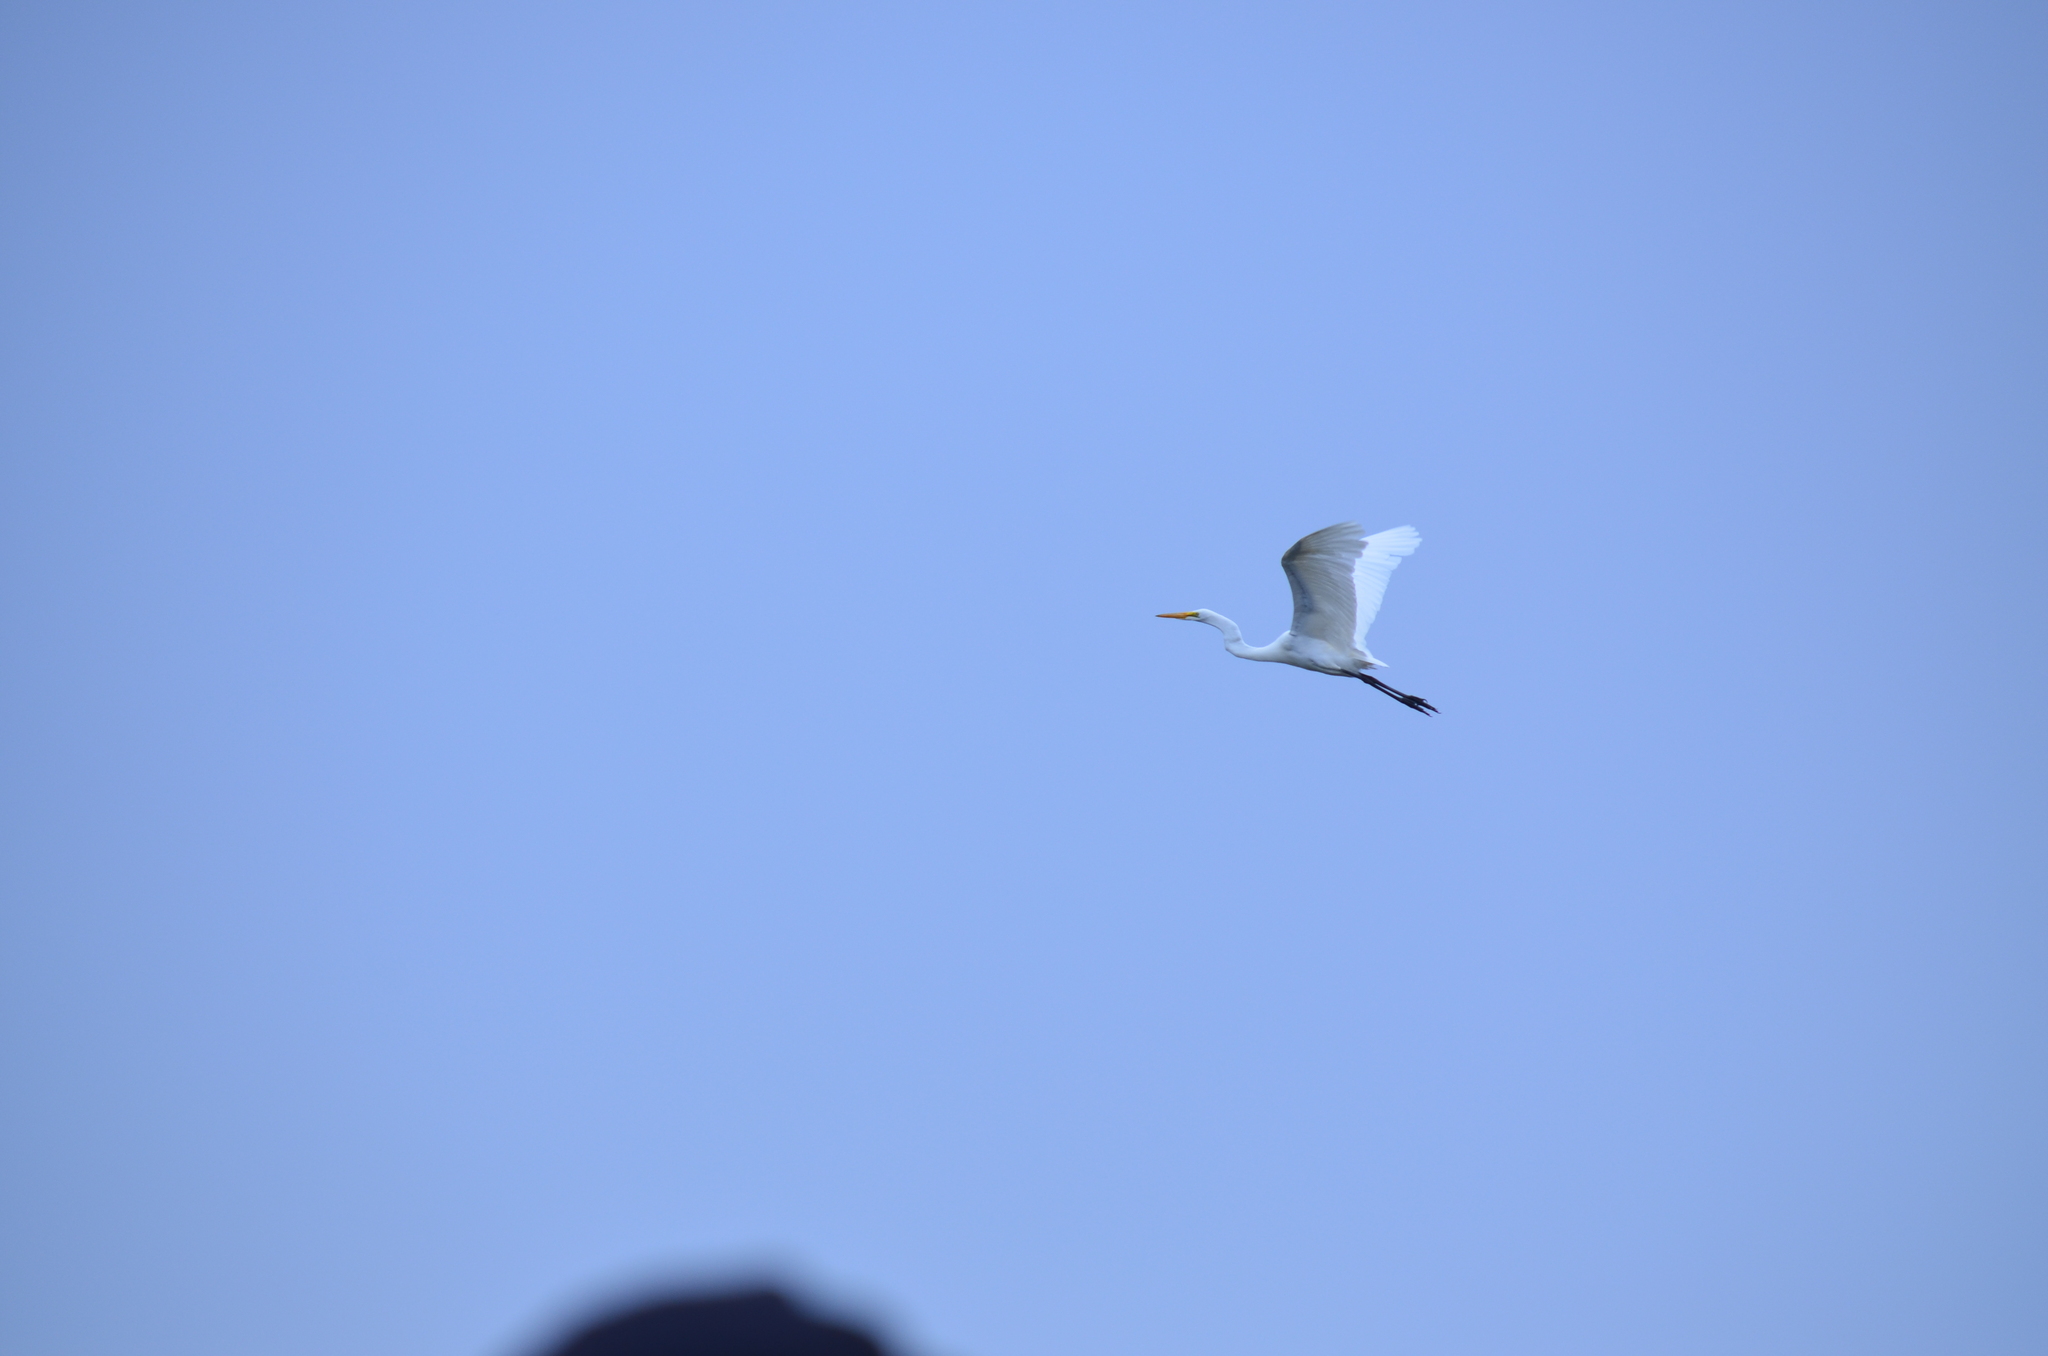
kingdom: Animalia
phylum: Chordata
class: Aves
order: Pelecaniformes
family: Ardeidae
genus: Ardea
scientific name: Ardea alba
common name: Great egret
